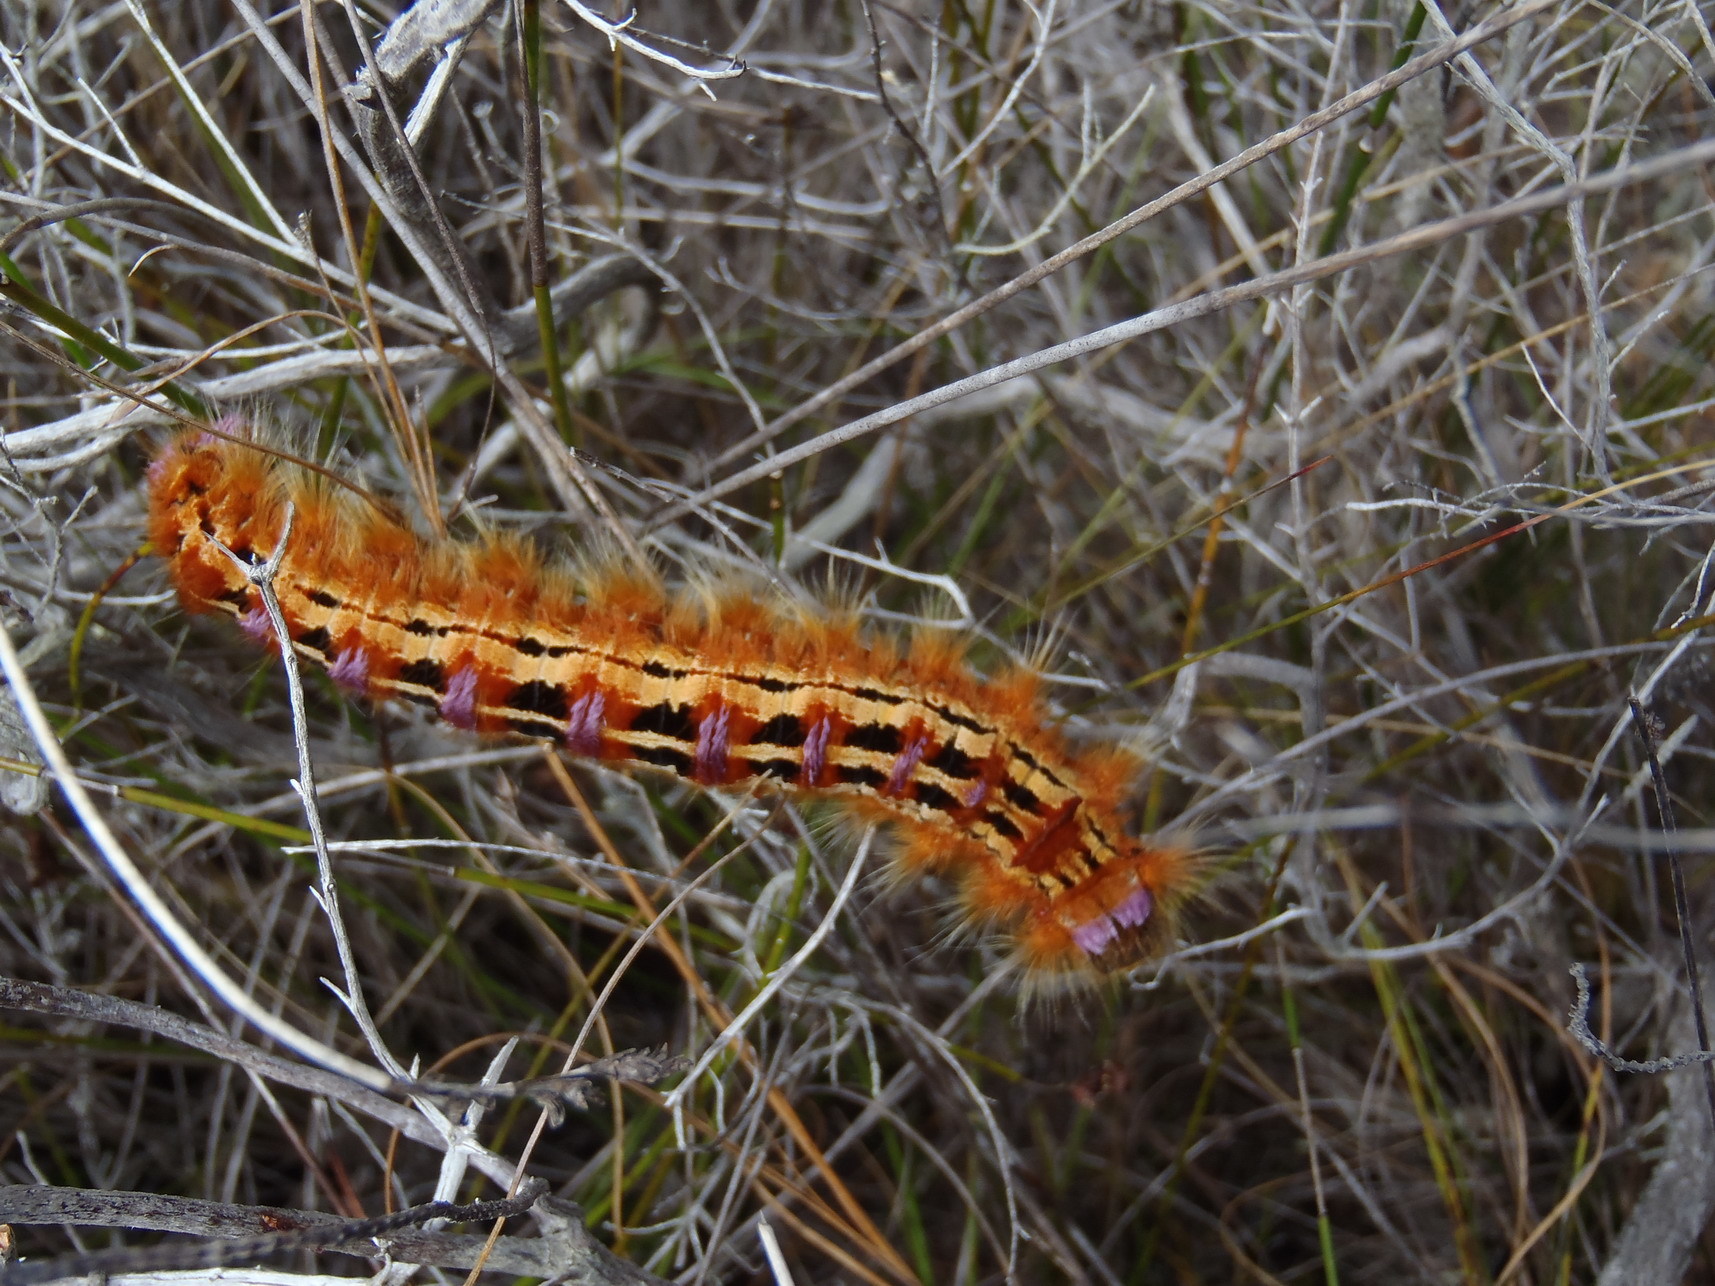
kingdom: Animalia
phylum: Arthropoda
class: Insecta
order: Lepidoptera
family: Lasiocampidae
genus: Eutricha
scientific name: Eutricha bifascia
